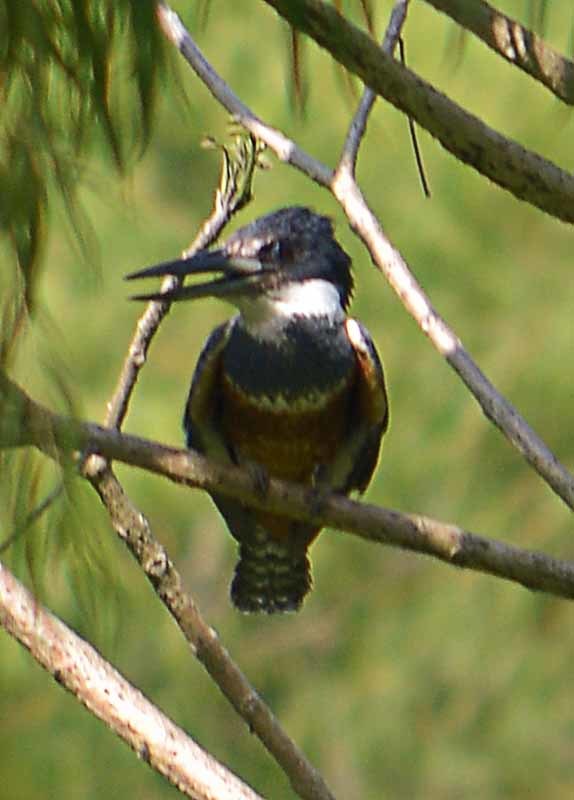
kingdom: Animalia
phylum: Chordata
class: Aves
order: Coraciiformes
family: Alcedinidae
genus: Megaceryle
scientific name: Megaceryle torquata
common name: Ringed kingfisher
